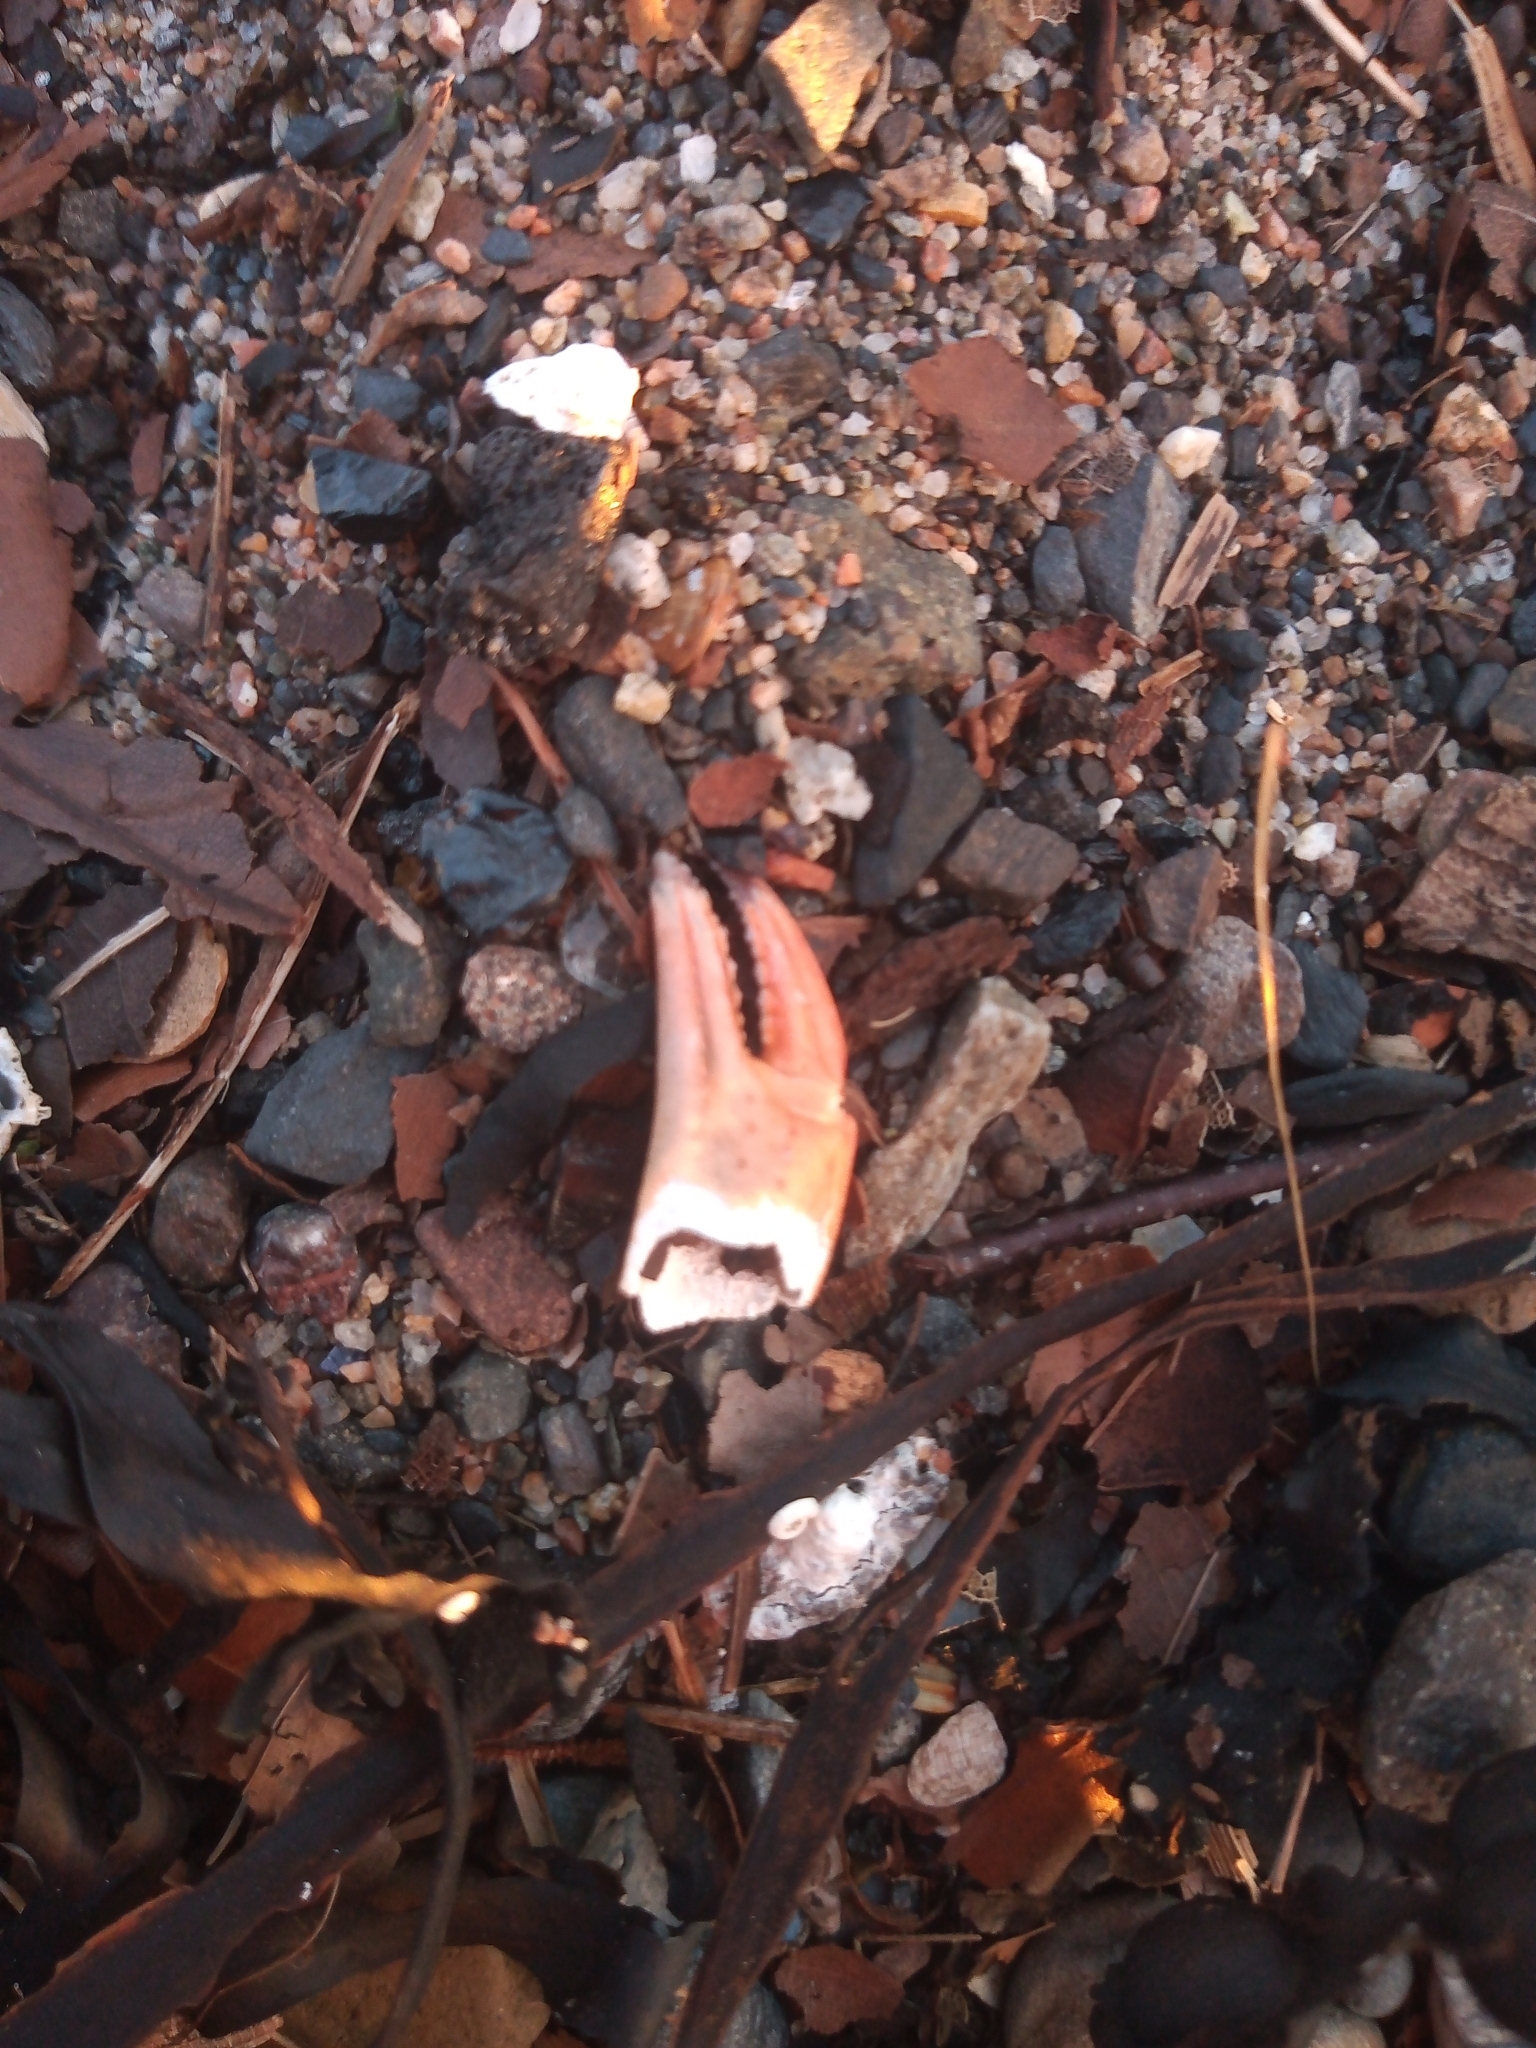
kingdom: Animalia
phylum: Arthropoda
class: Malacostraca
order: Decapoda
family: Carcinidae
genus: Carcinus
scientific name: Carcinus maenas
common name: European green crab
